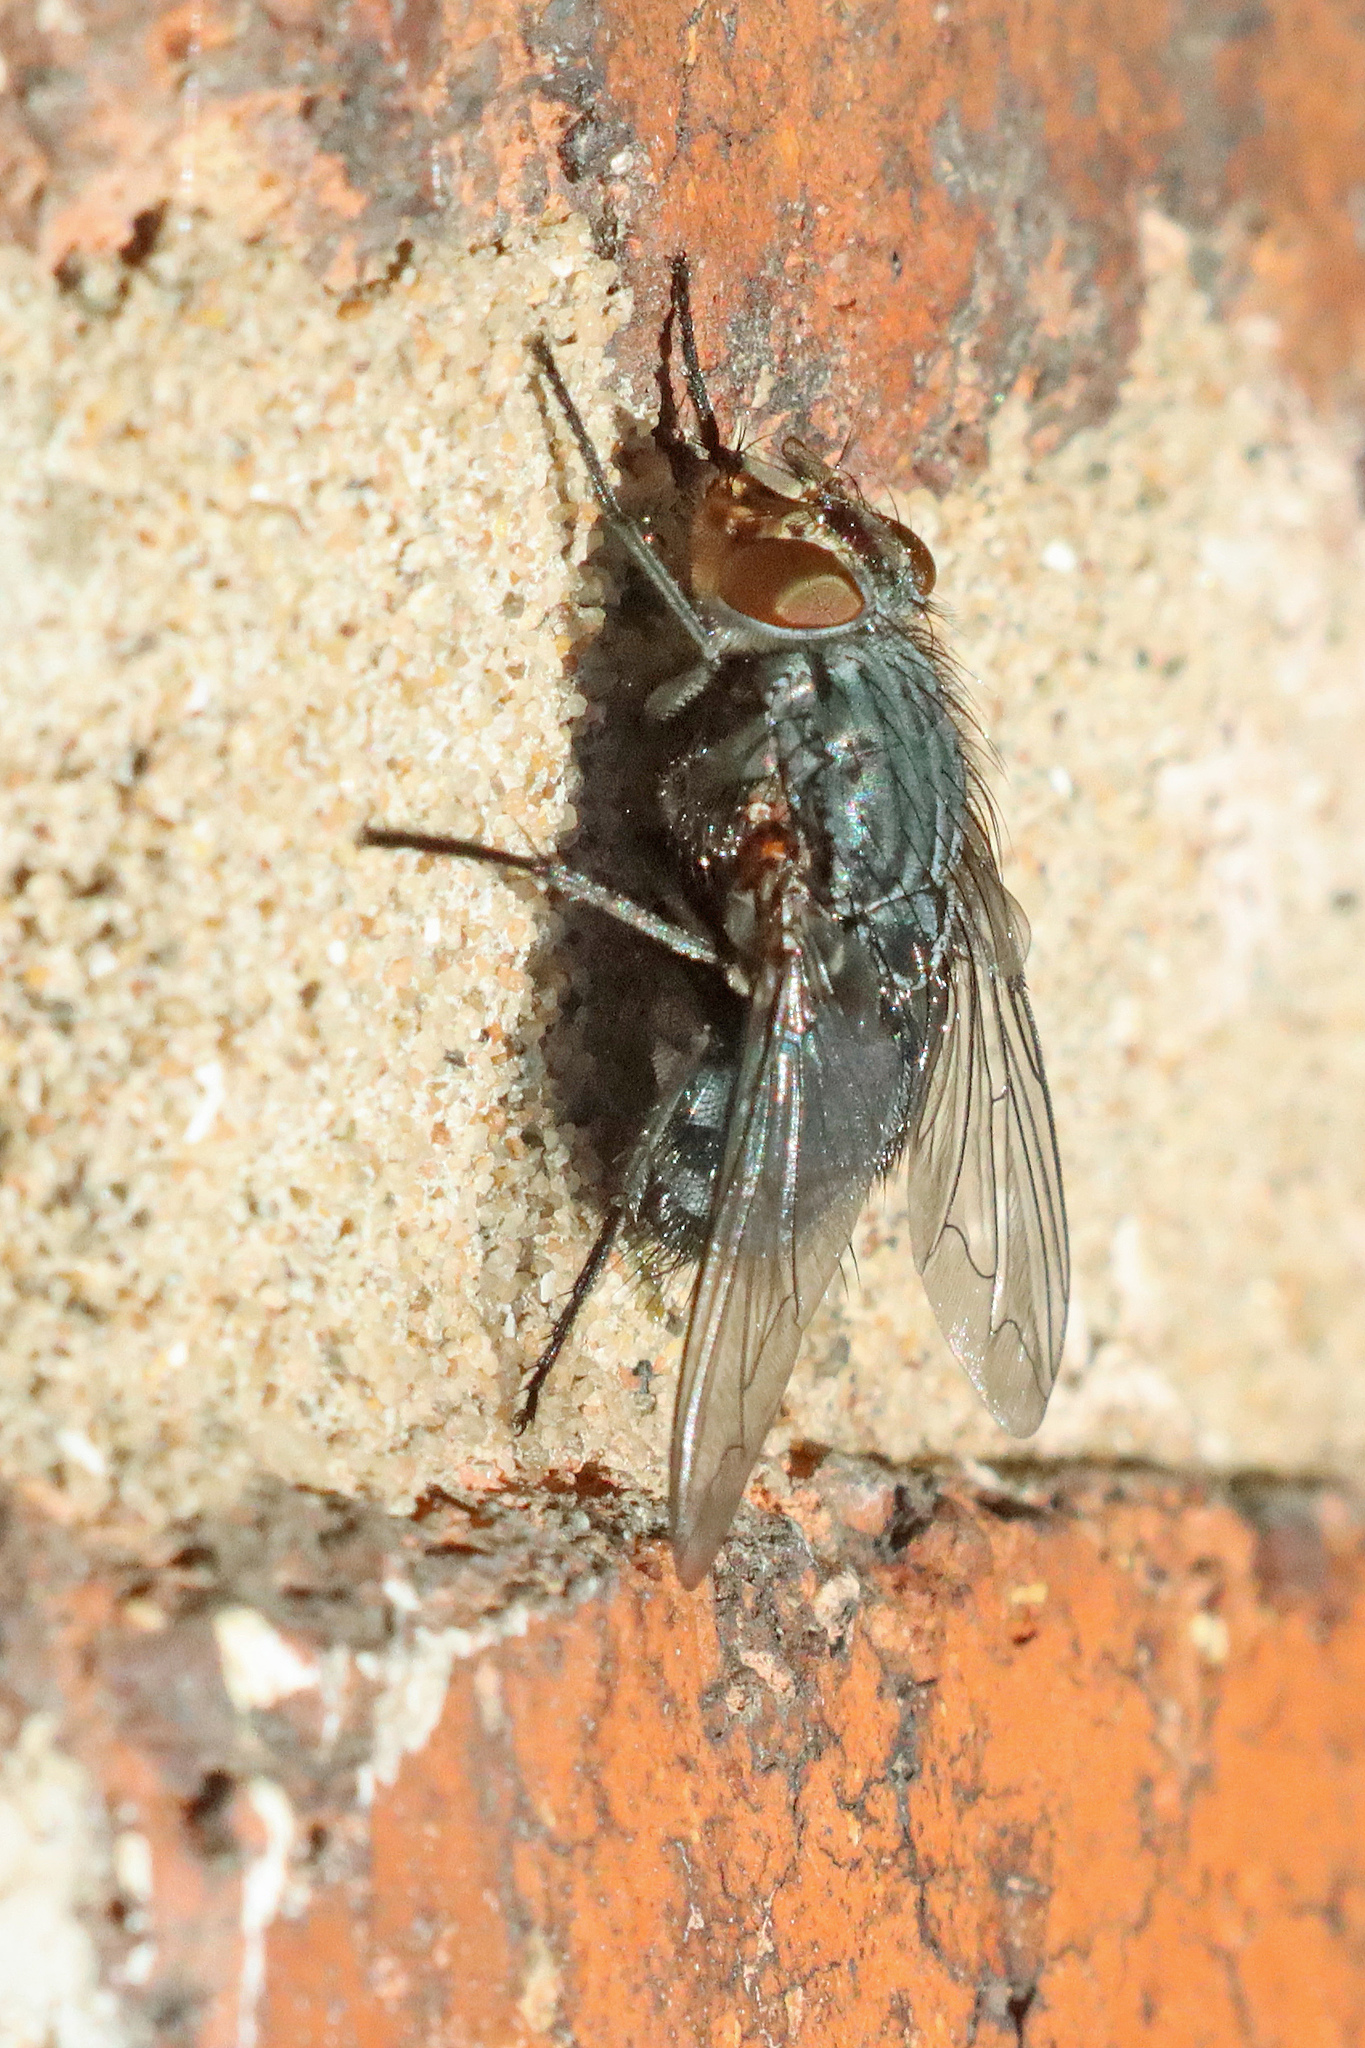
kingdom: Animalia
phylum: Arthropoda
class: Insecta
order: Diptera
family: Calliphoridae
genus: Calliphora
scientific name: Calliphora vicina
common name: Common blow flie
